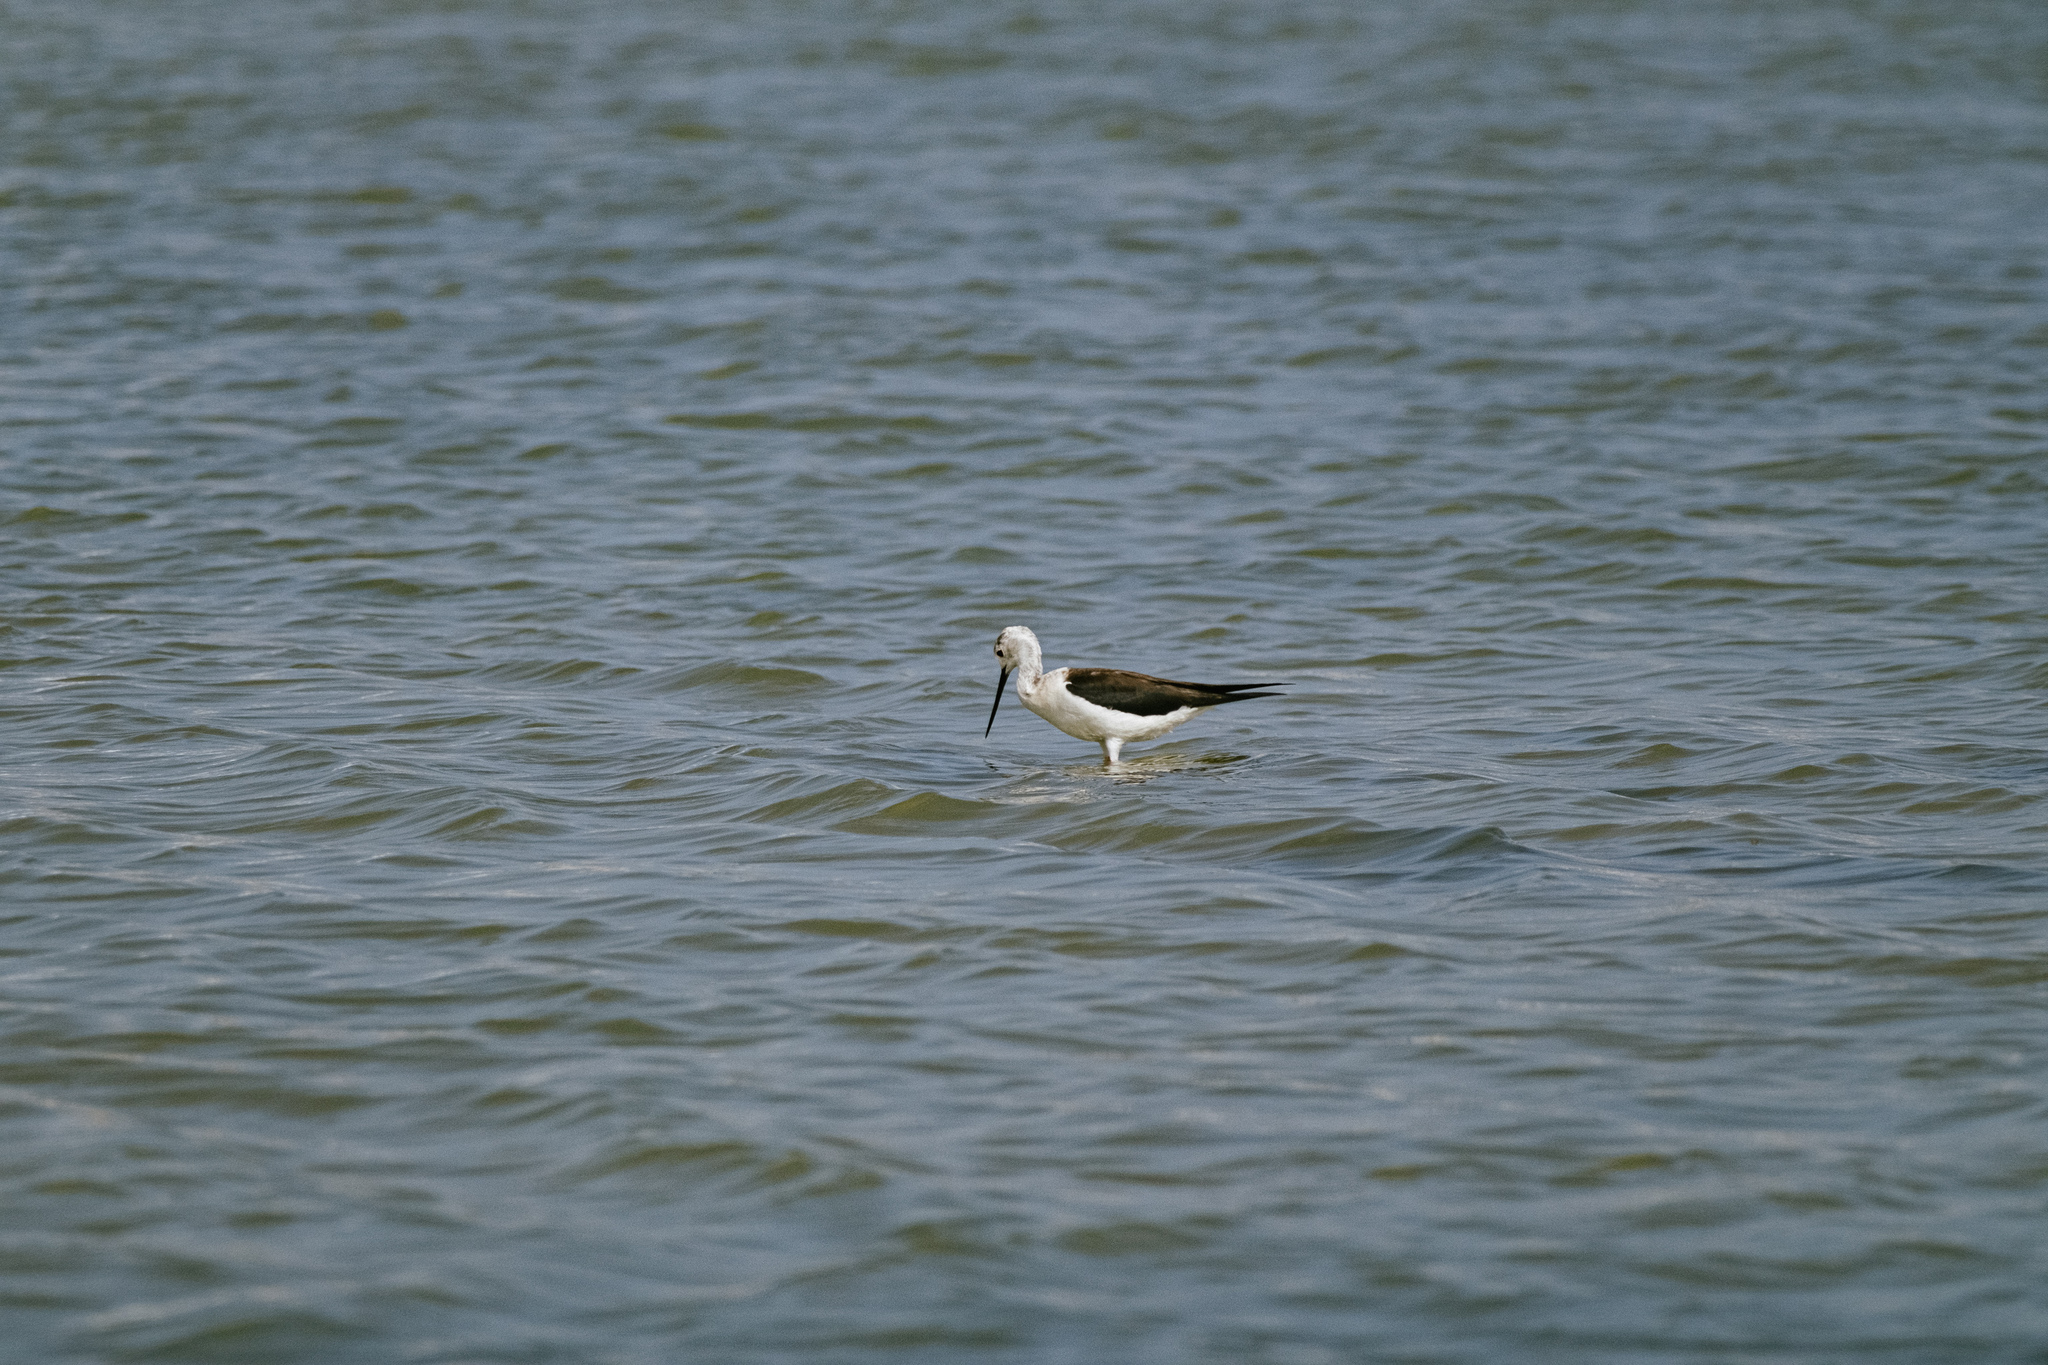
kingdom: Animalia
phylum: Chordata
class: Aves
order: Charadriiformes
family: Recurvirostridae
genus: Himantopus
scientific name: Himantopus himantopus
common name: Black-winged stilt
